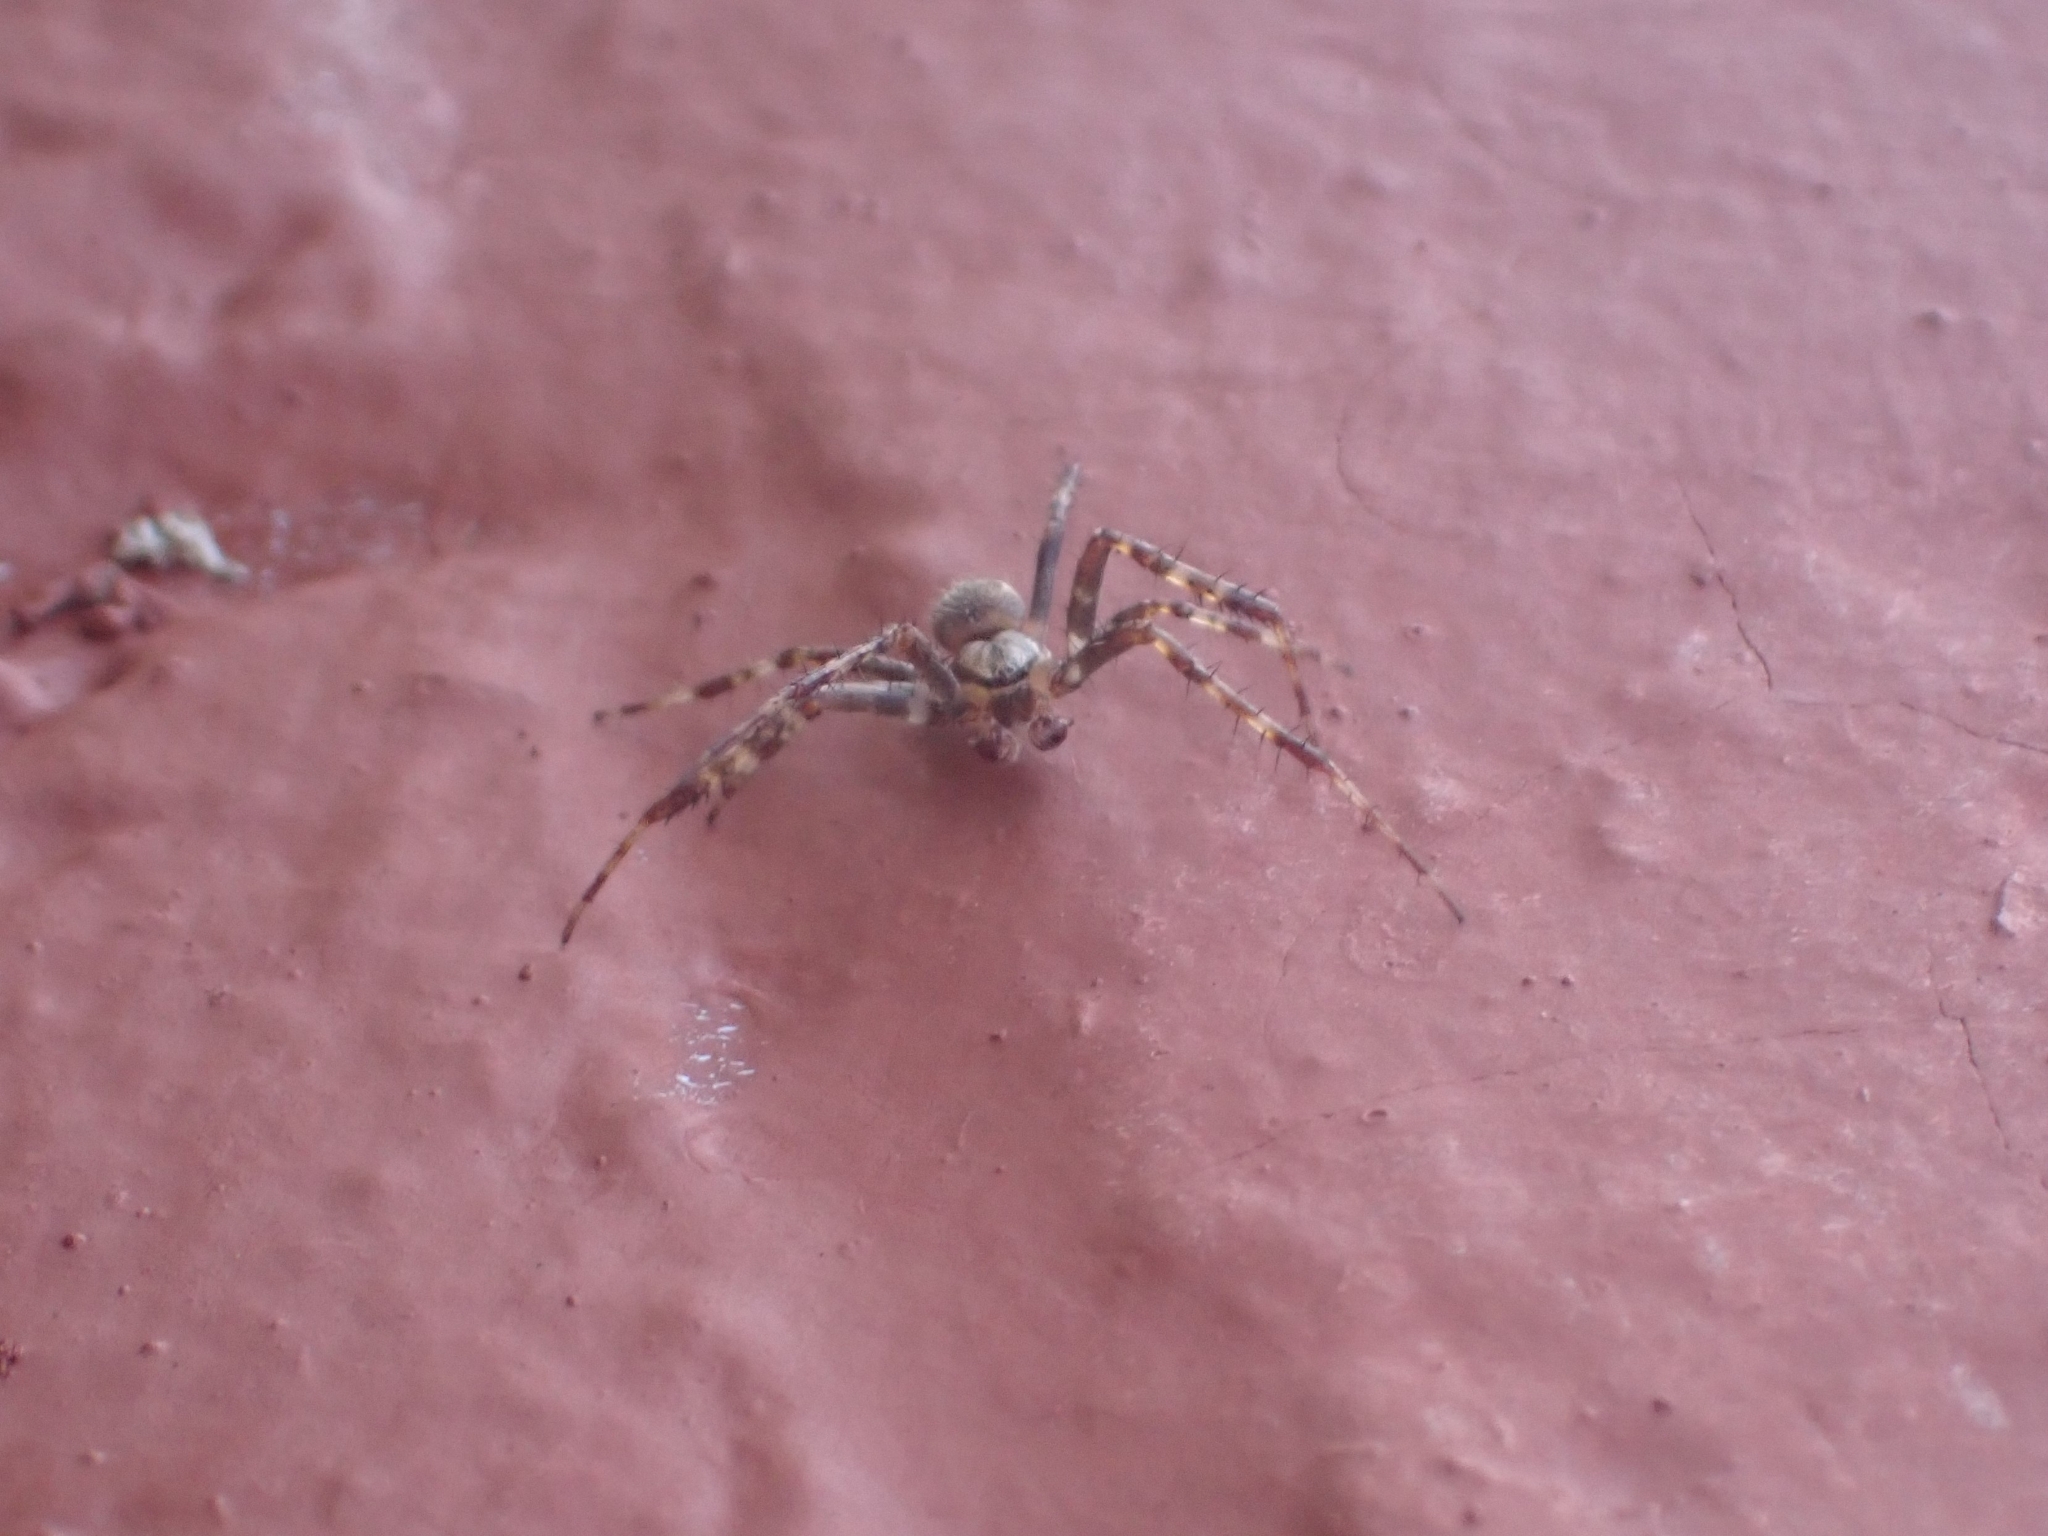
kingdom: Animalia
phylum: Arthropoda
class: Arachnida
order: Araneae
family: Araneidae
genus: Araneus
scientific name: Araneus diadematus
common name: Cross orbweaver
